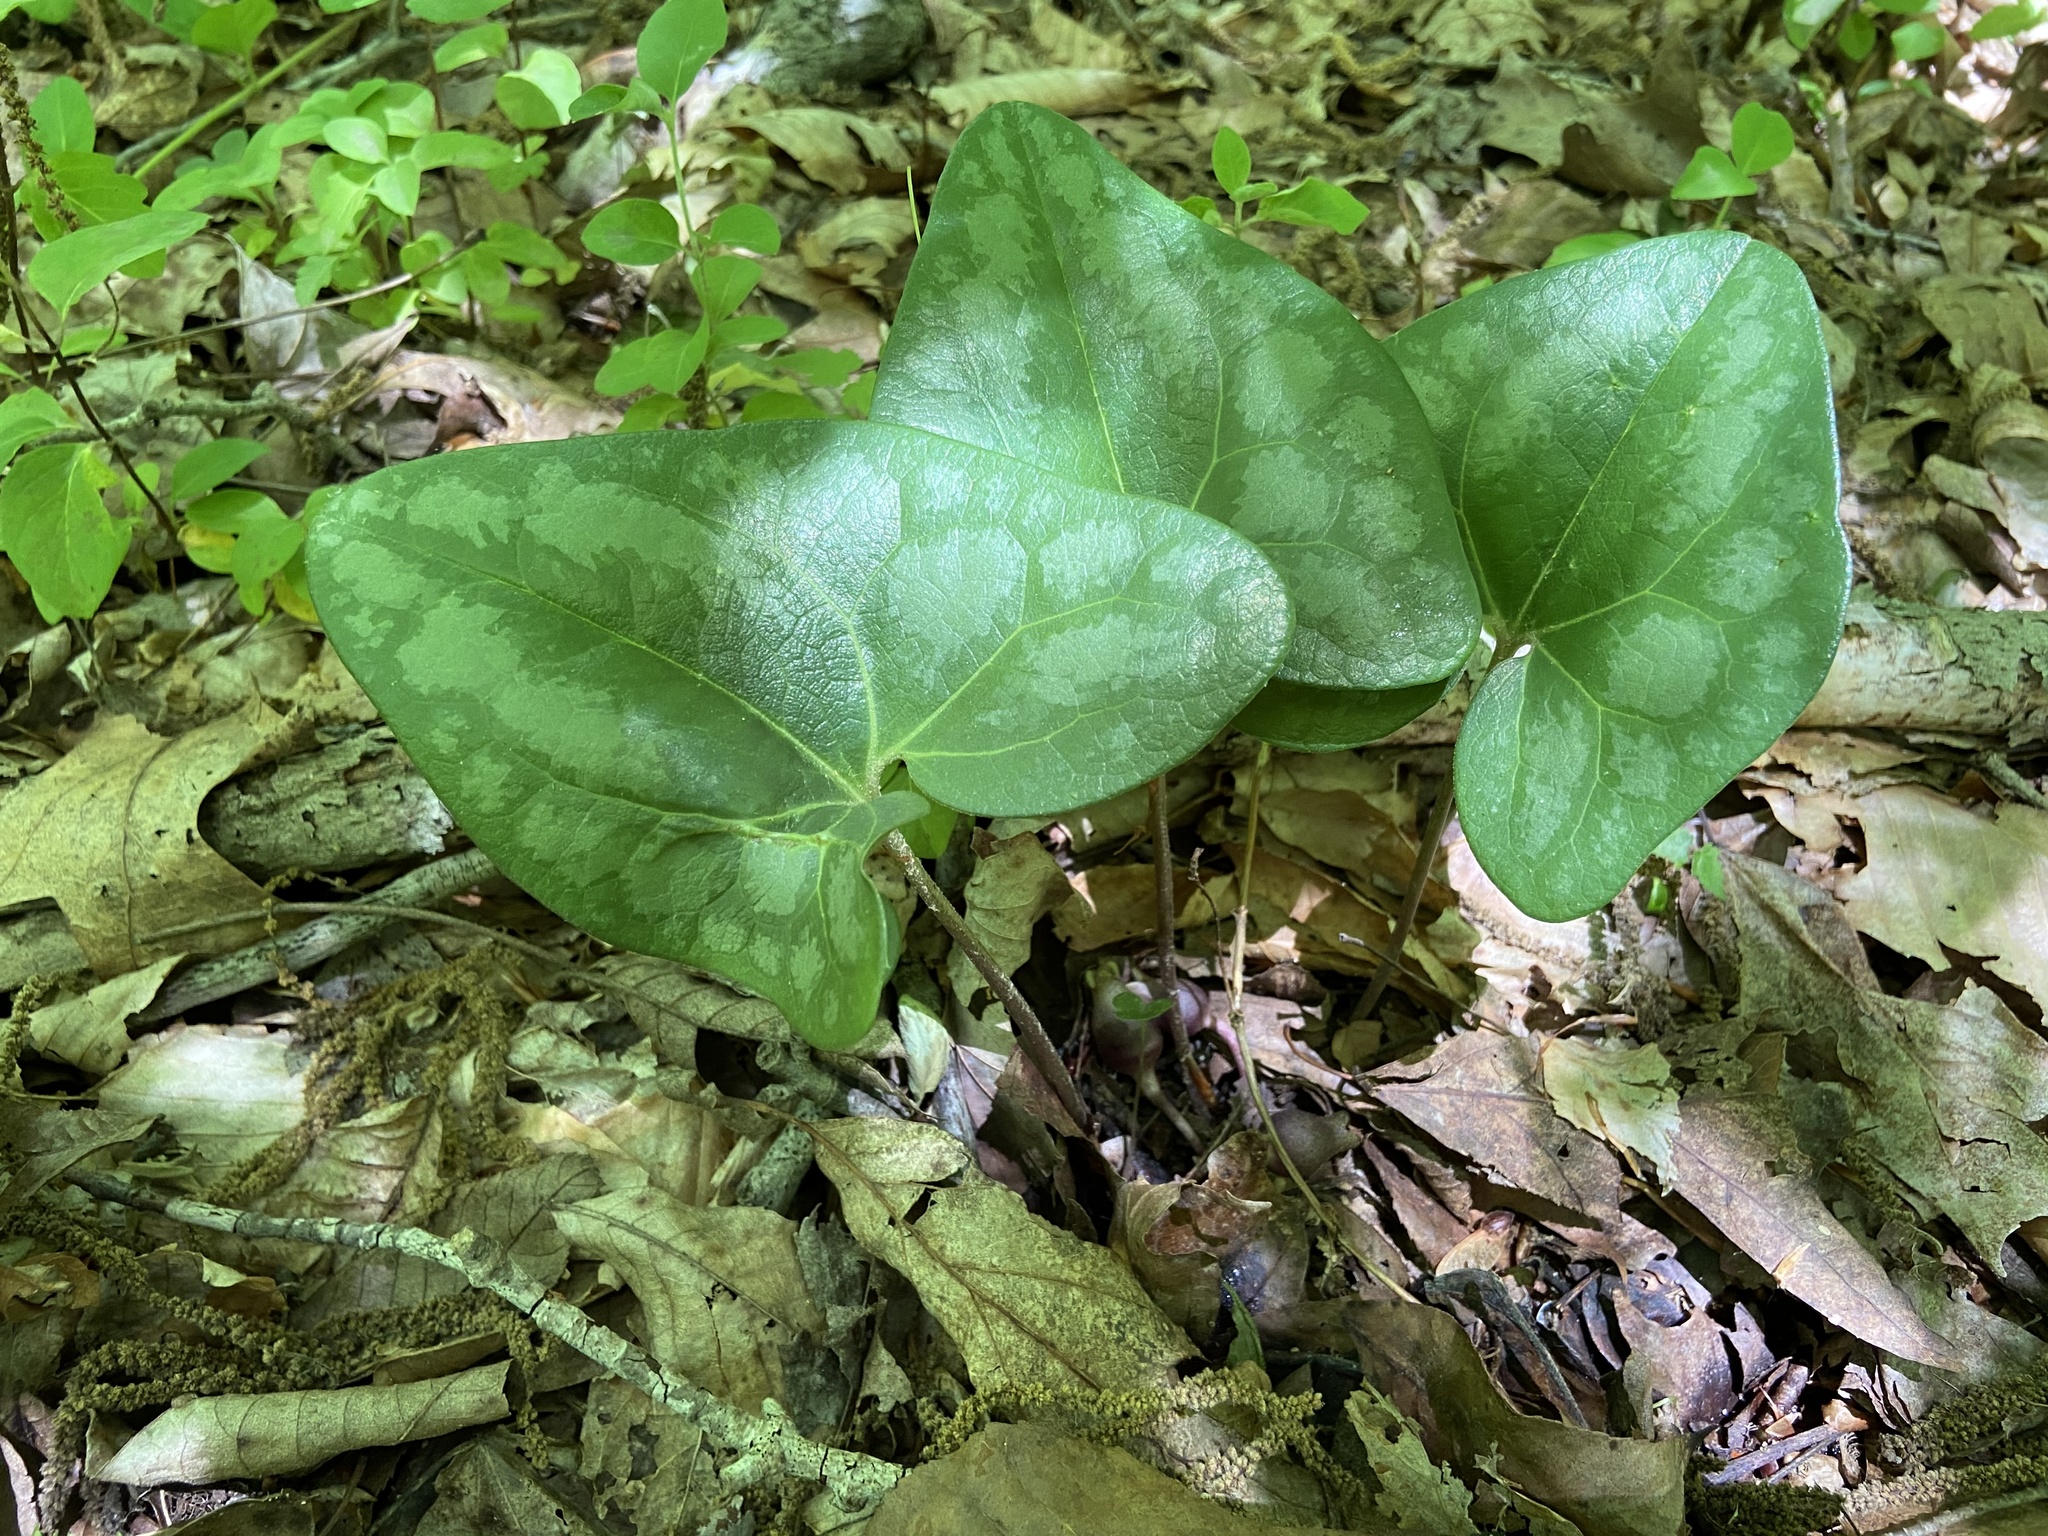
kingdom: Plantae
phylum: Tracheophyta
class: Magnoliopsida
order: Piperales
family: Aristolochiaceae
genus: Hexastylis
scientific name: Hexastylis arifolia
